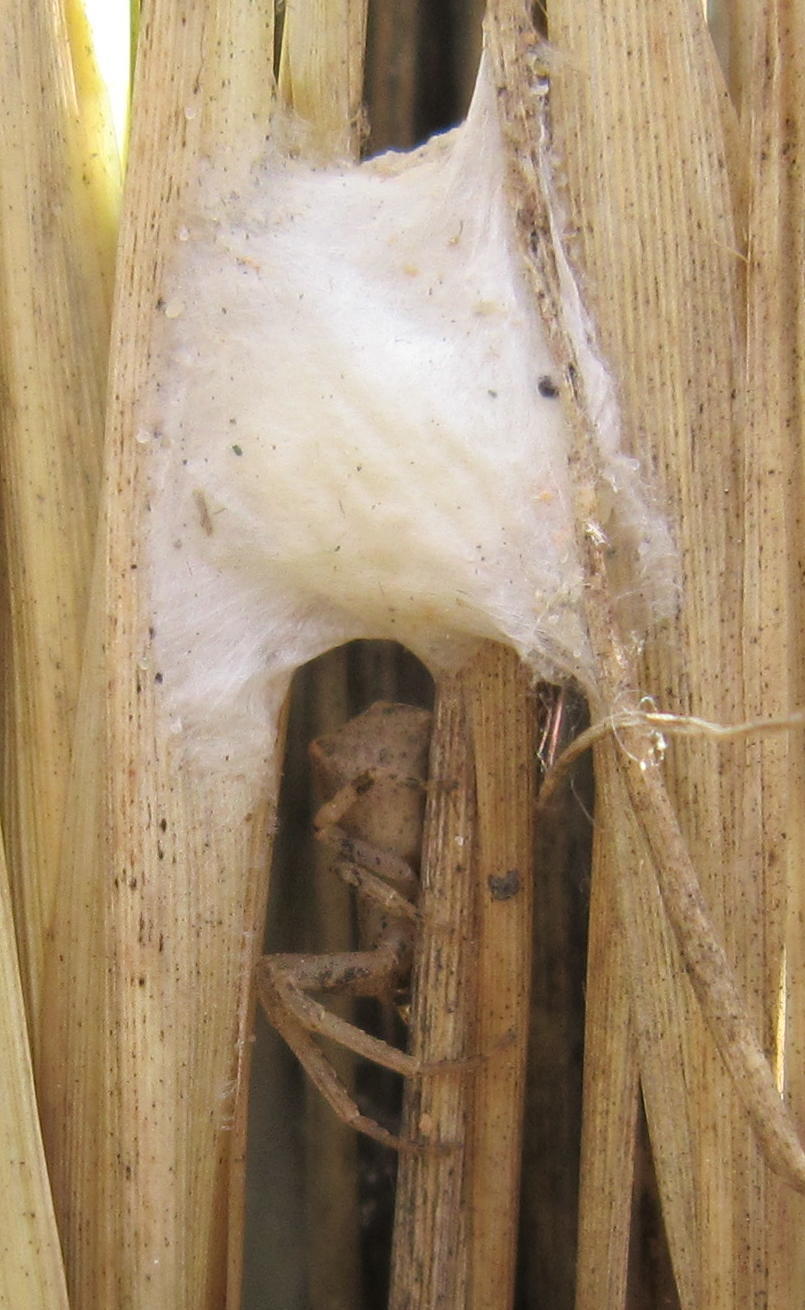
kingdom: Animalia
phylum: Arthropoda
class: Arachnida
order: Araneae
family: Thomisidae
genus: Sidymella
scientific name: Sidymella
